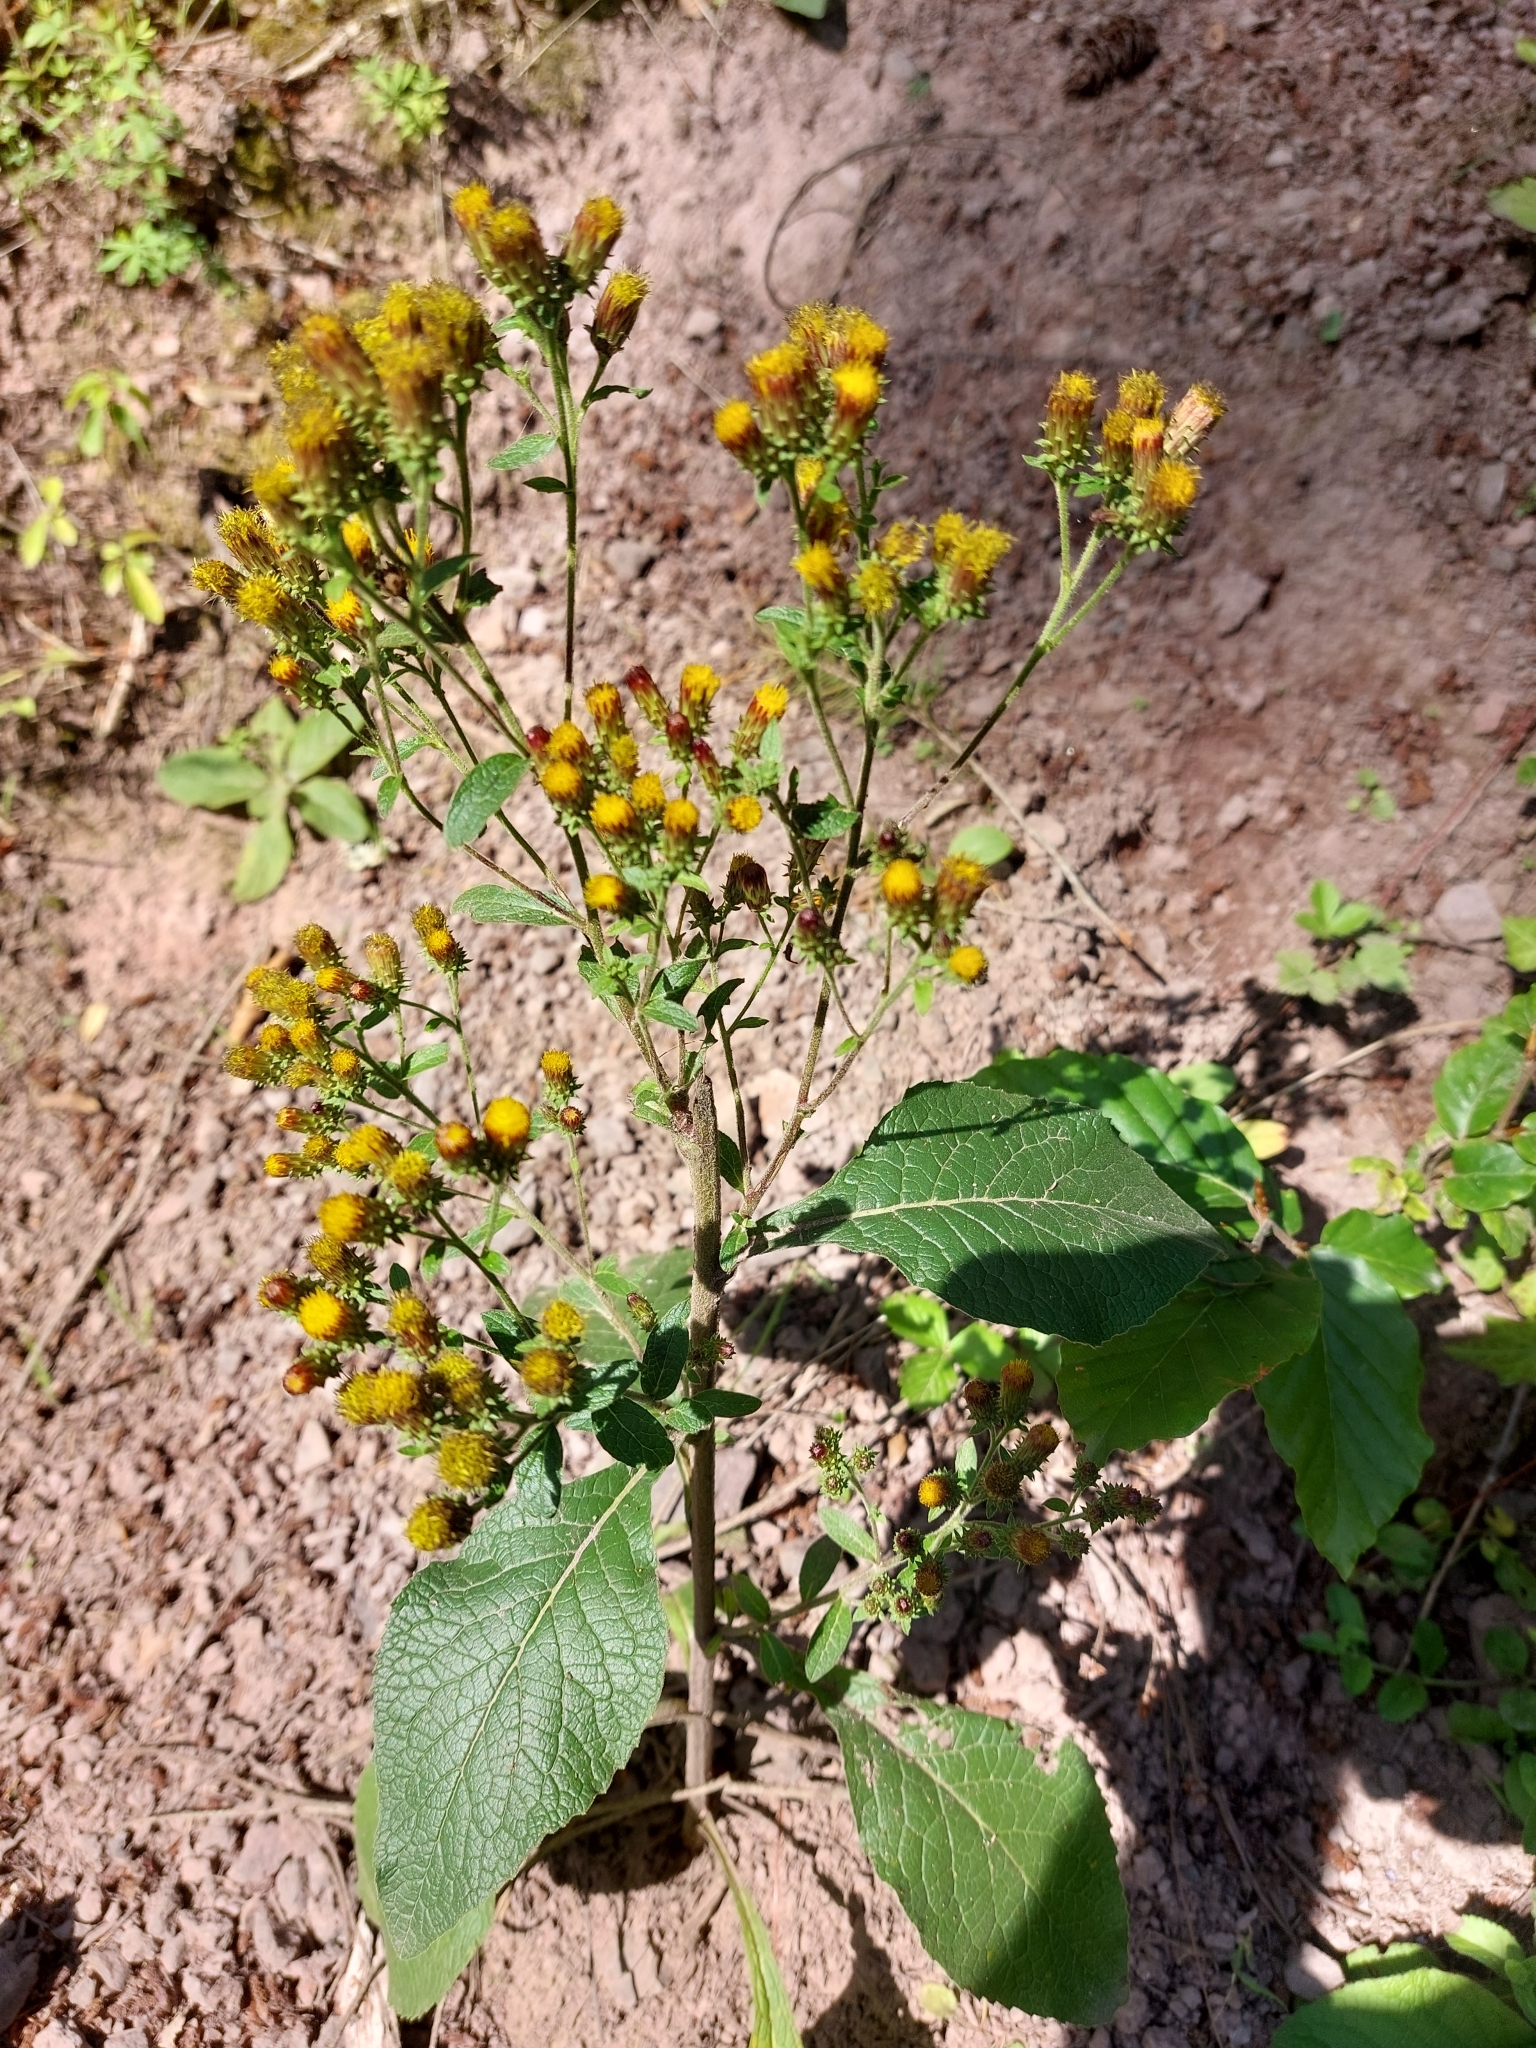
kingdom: Plantae
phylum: Tracheophyta
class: Magnoliopsida
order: Asterales
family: Asteraceae
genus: Pentanema
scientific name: Pentanema squarrosum
